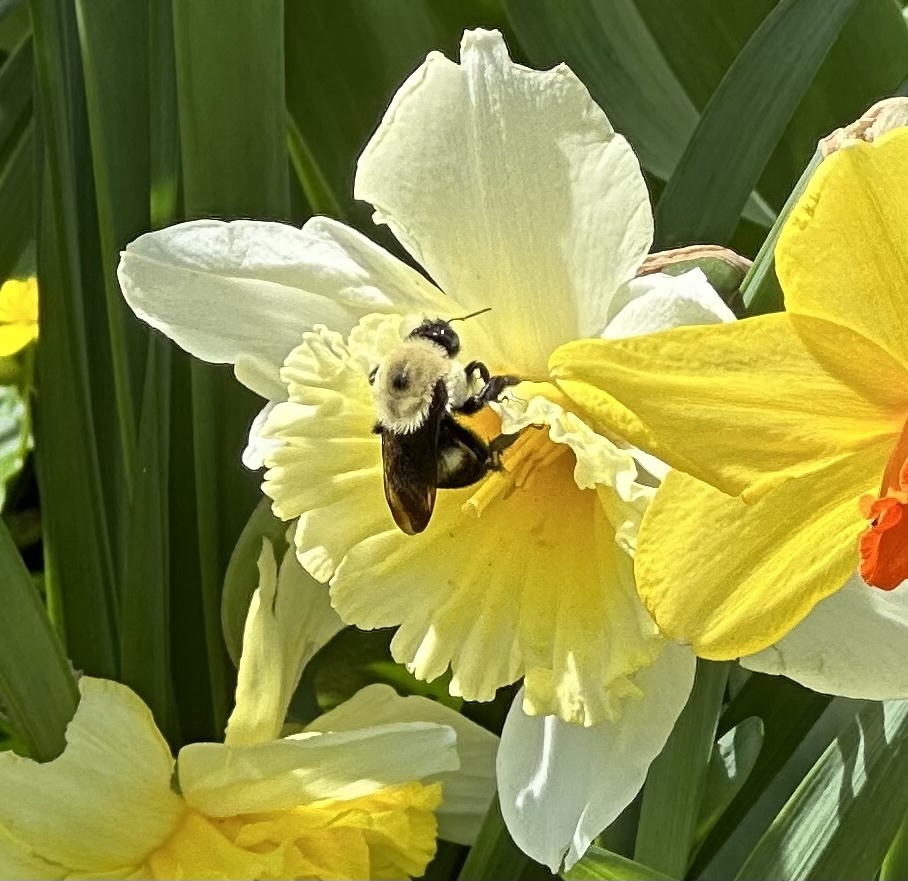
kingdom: Animalia
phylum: Arthropoda
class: Insecta
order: Hymenoptera
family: Apidae
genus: Bombus
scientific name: Bombus griseocollis
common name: Brown-belted bumble bee
